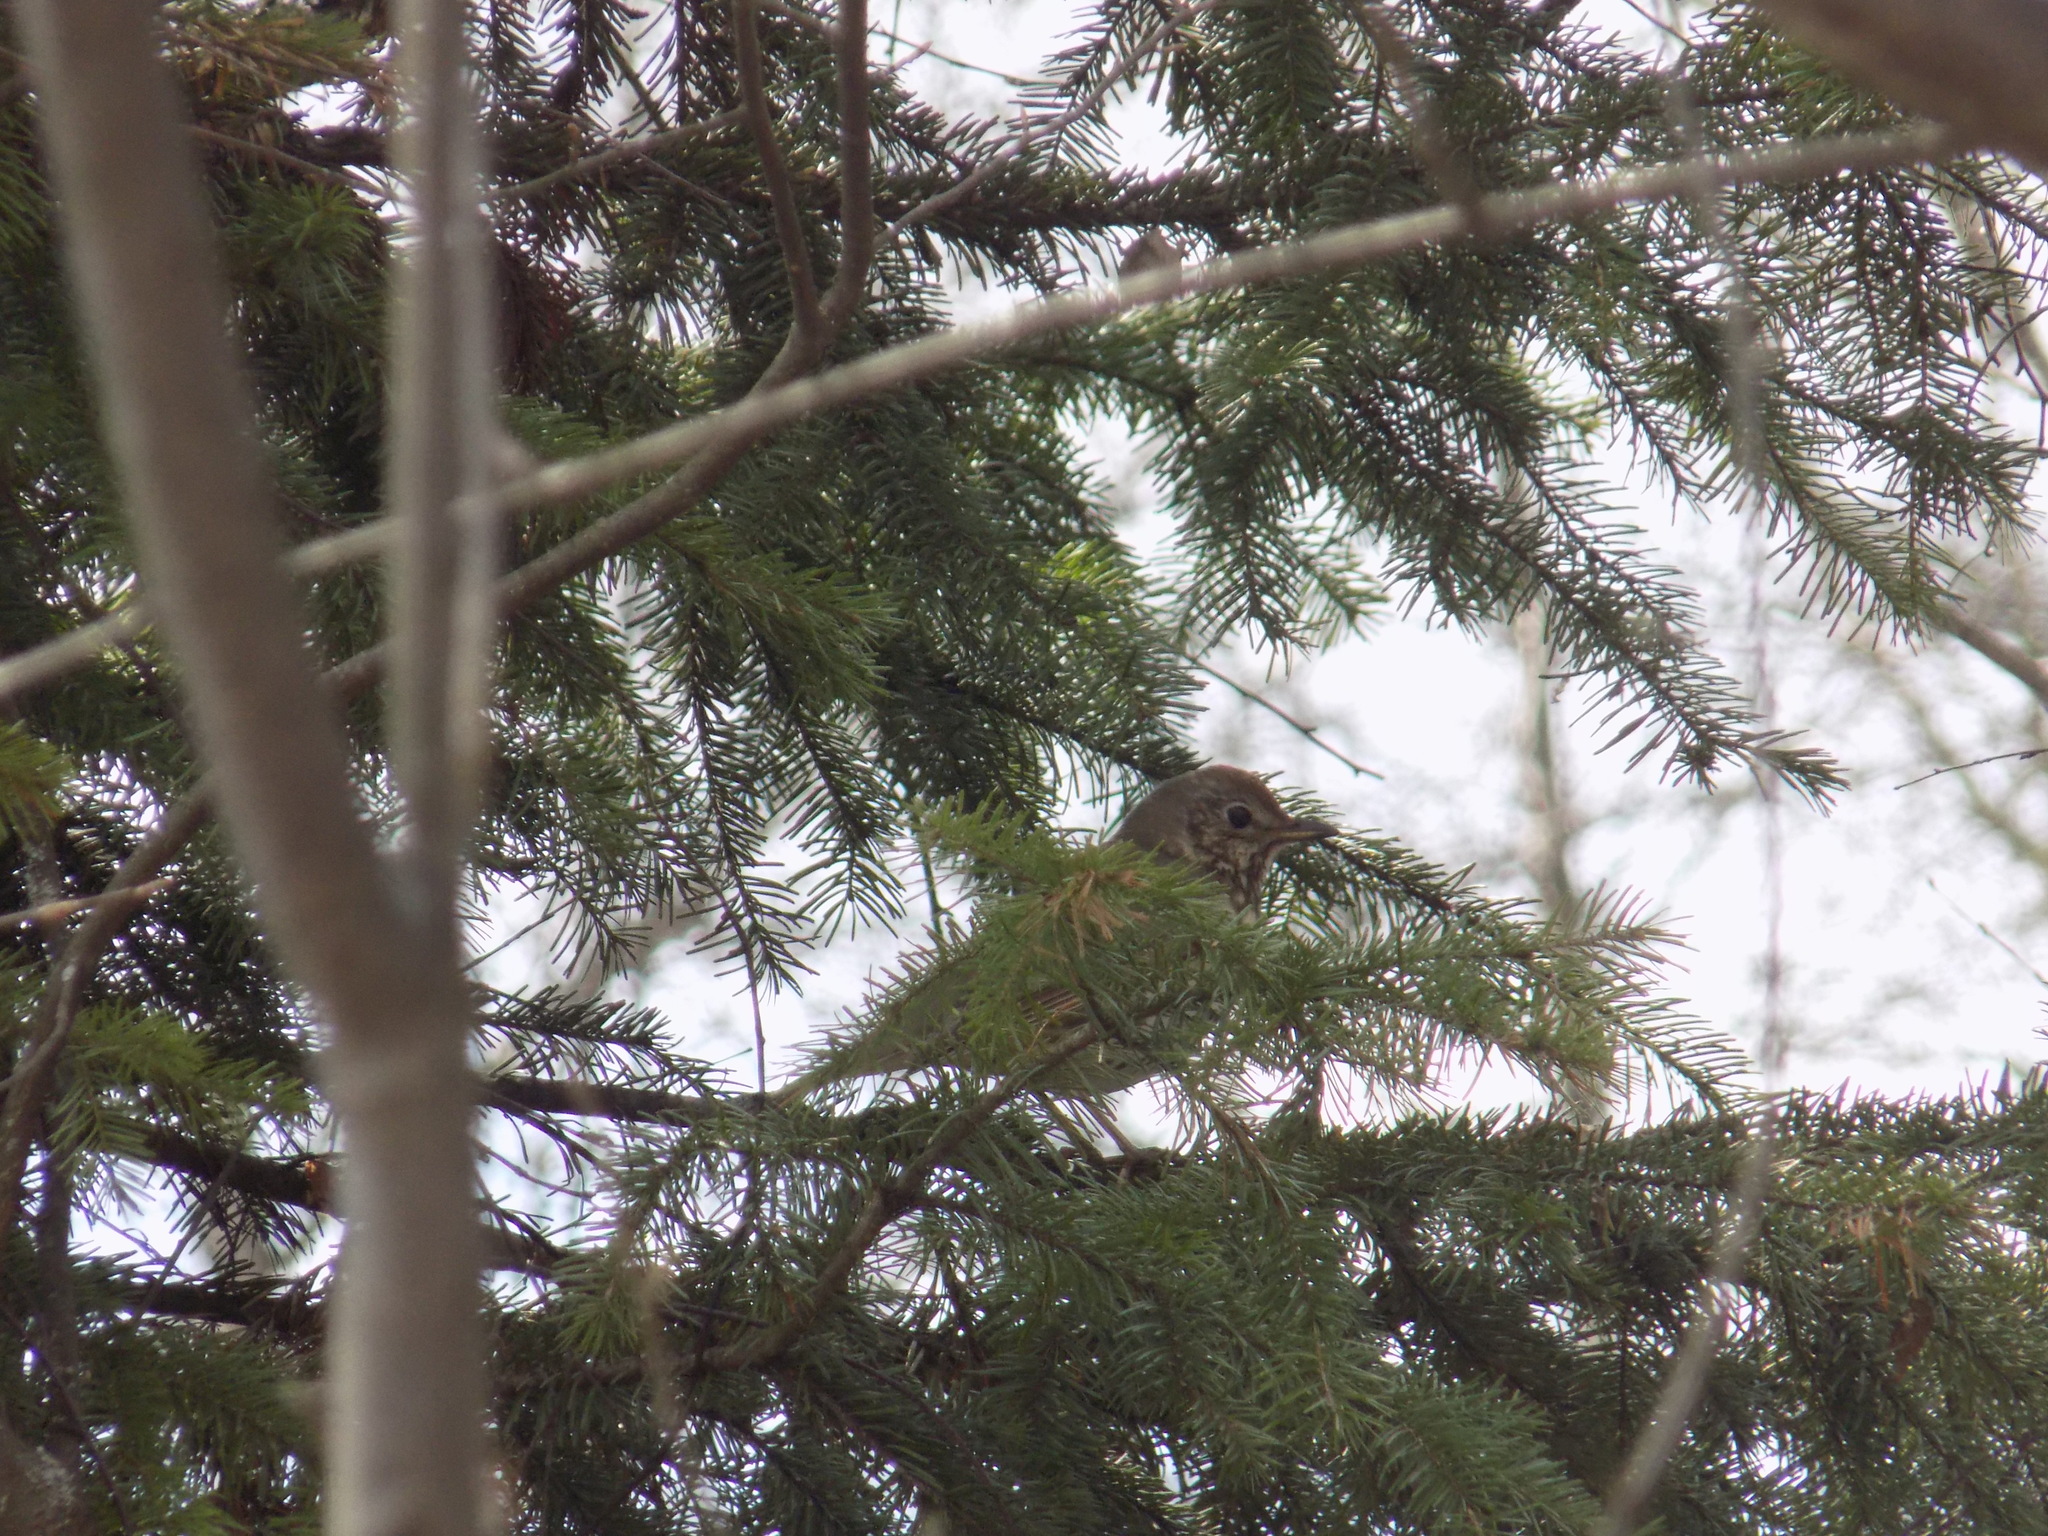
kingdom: Animalia
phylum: Chordata
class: Aves
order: Passeriformes
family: Turdidae
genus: Turdus
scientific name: Turdus pilaris
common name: Fieldfare
